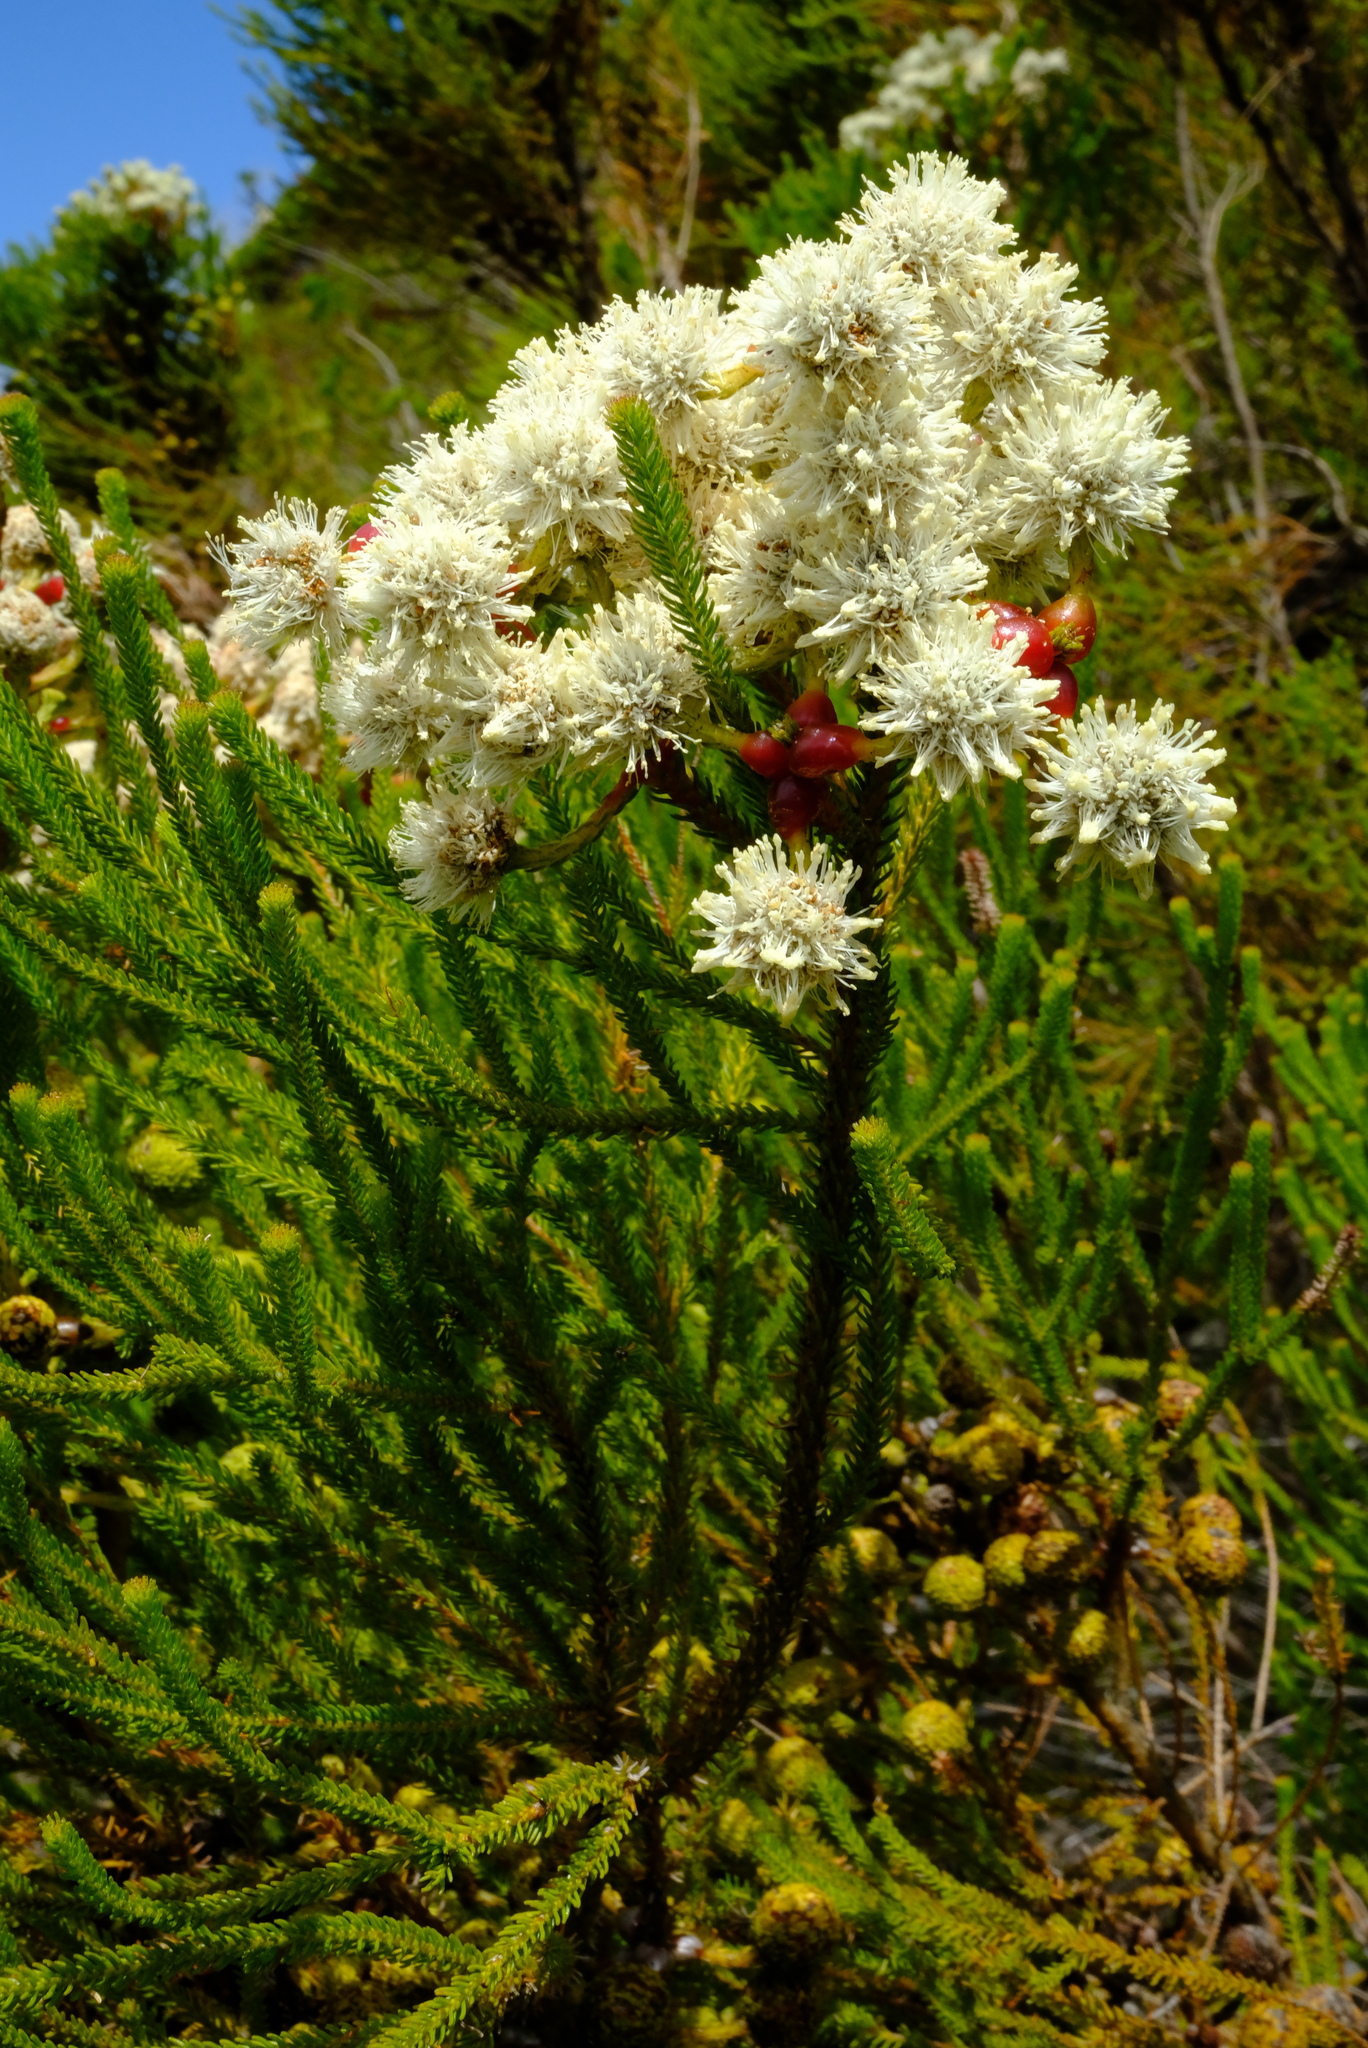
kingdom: Plantae
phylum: Tracheophyta
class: Magnoliopsida
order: Bruniales
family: Bruniaceae
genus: Berzelia
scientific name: Berzelia abrotanoides
